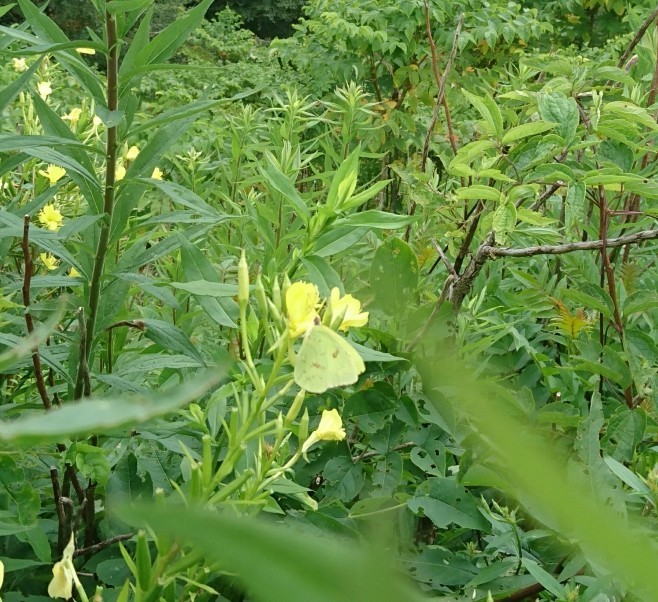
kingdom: Animalia
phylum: Arthropoda
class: Insecta
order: Lepidoptera
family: Pieridae
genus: Phoebis
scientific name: Phoebis sennae
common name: Cloudless sulphur
